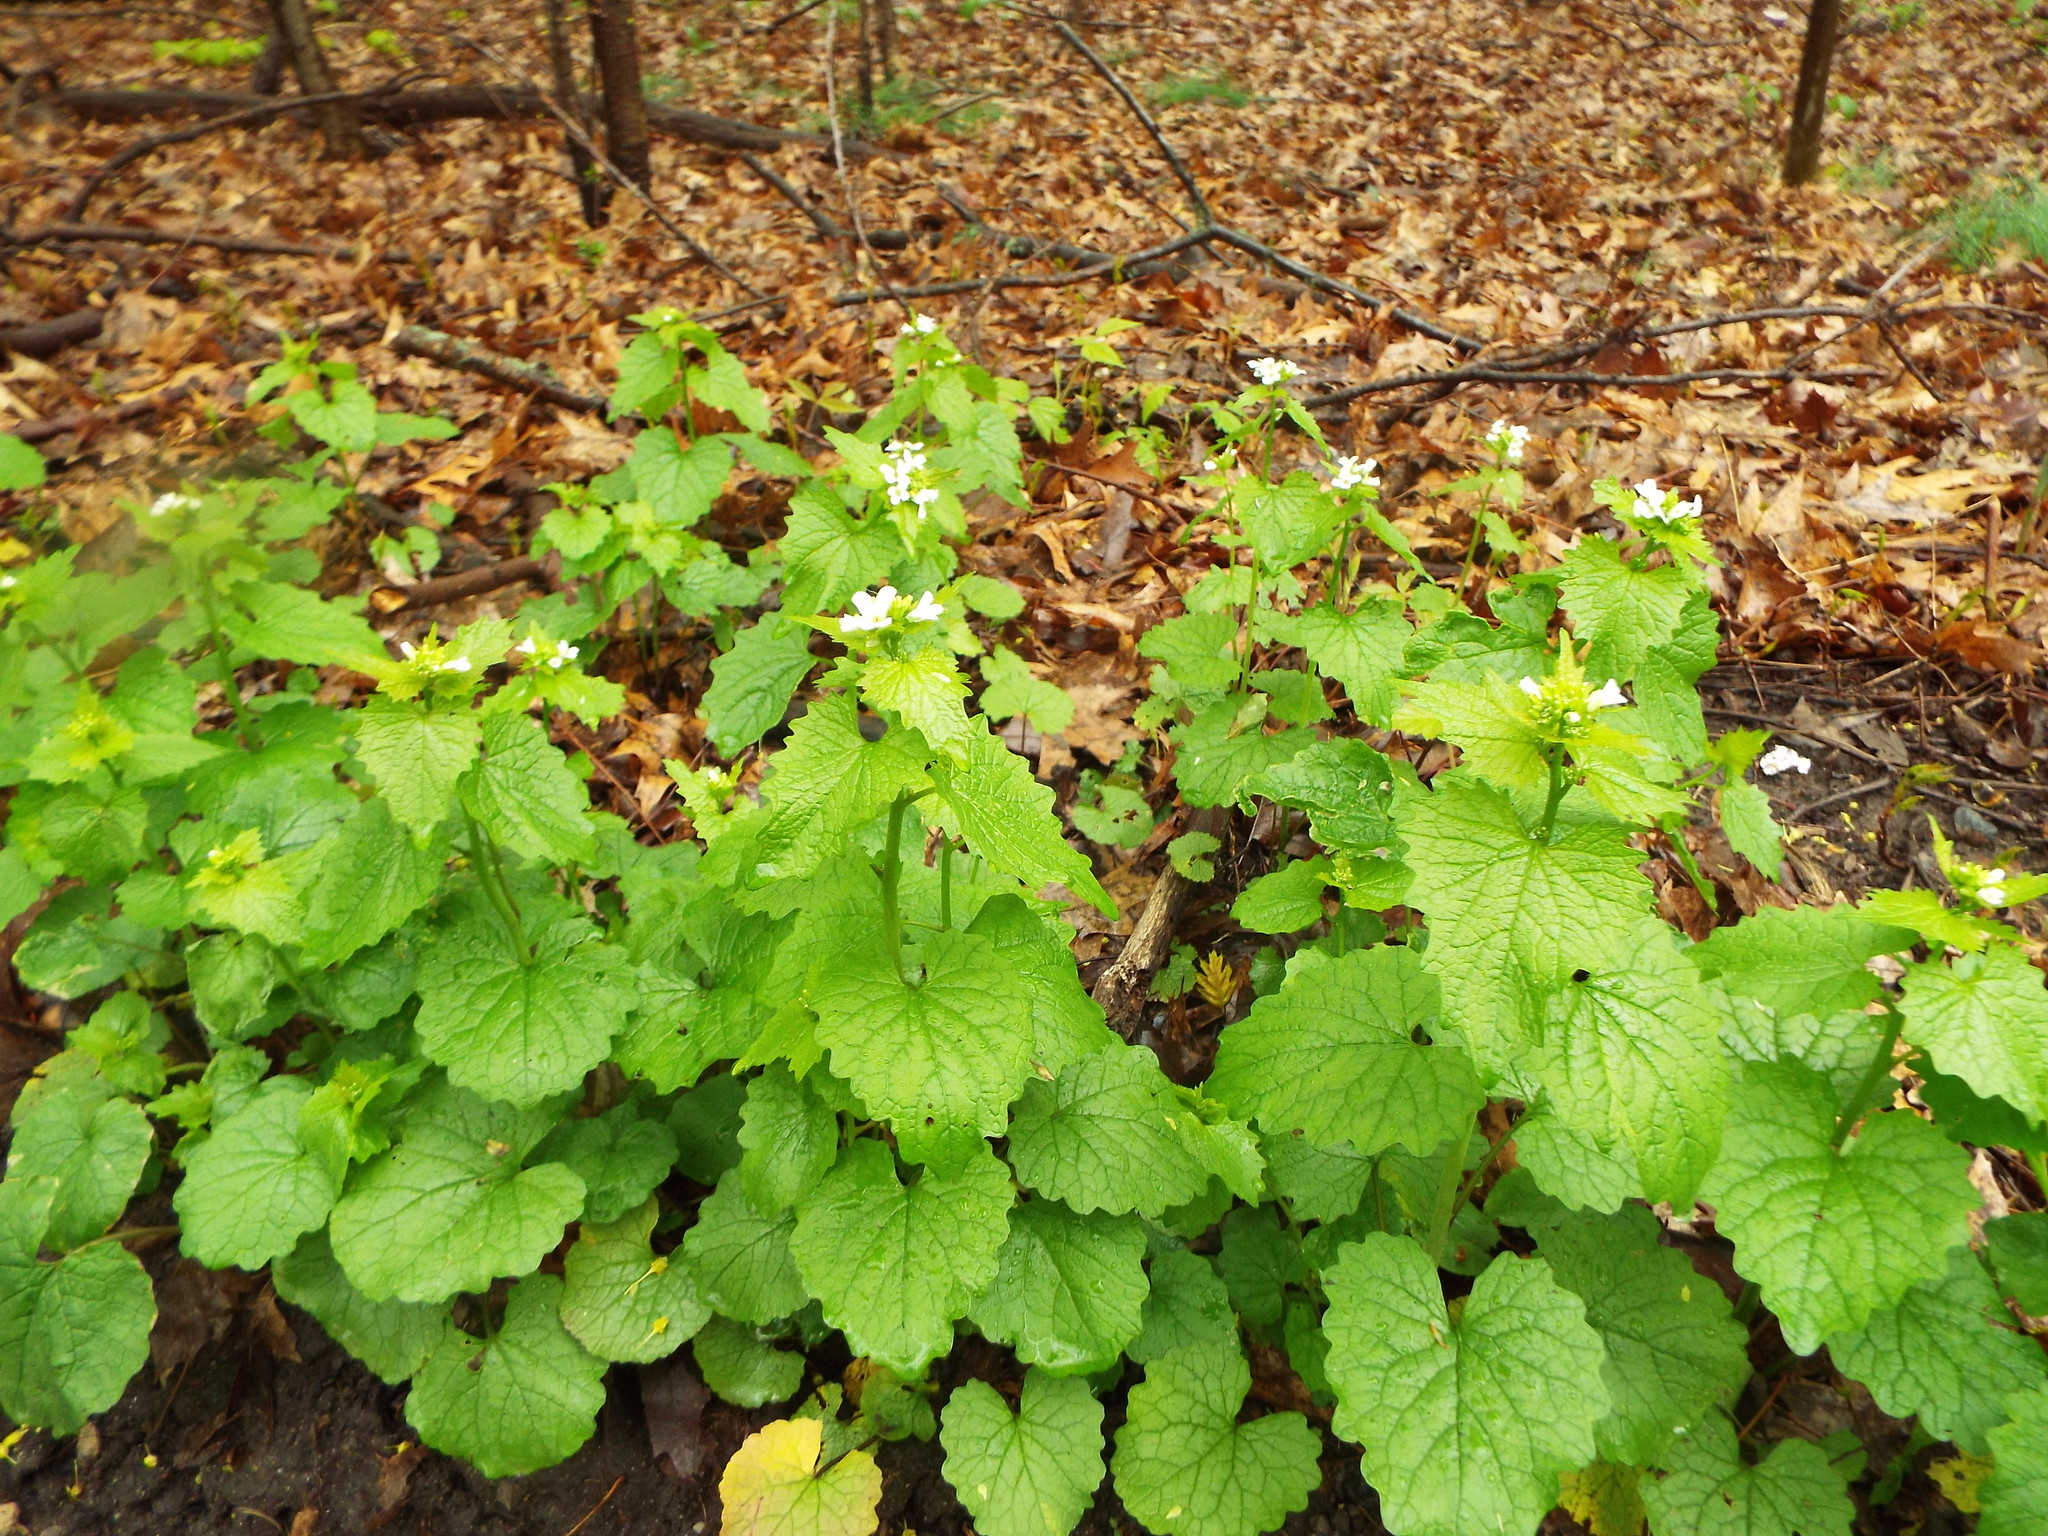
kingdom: Plantae
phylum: Tracheophyta
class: Magnoliopsida
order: Brassicales
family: Brassicaceae
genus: Alliaria
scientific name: Alliaria petiolata
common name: Garlic mustard
